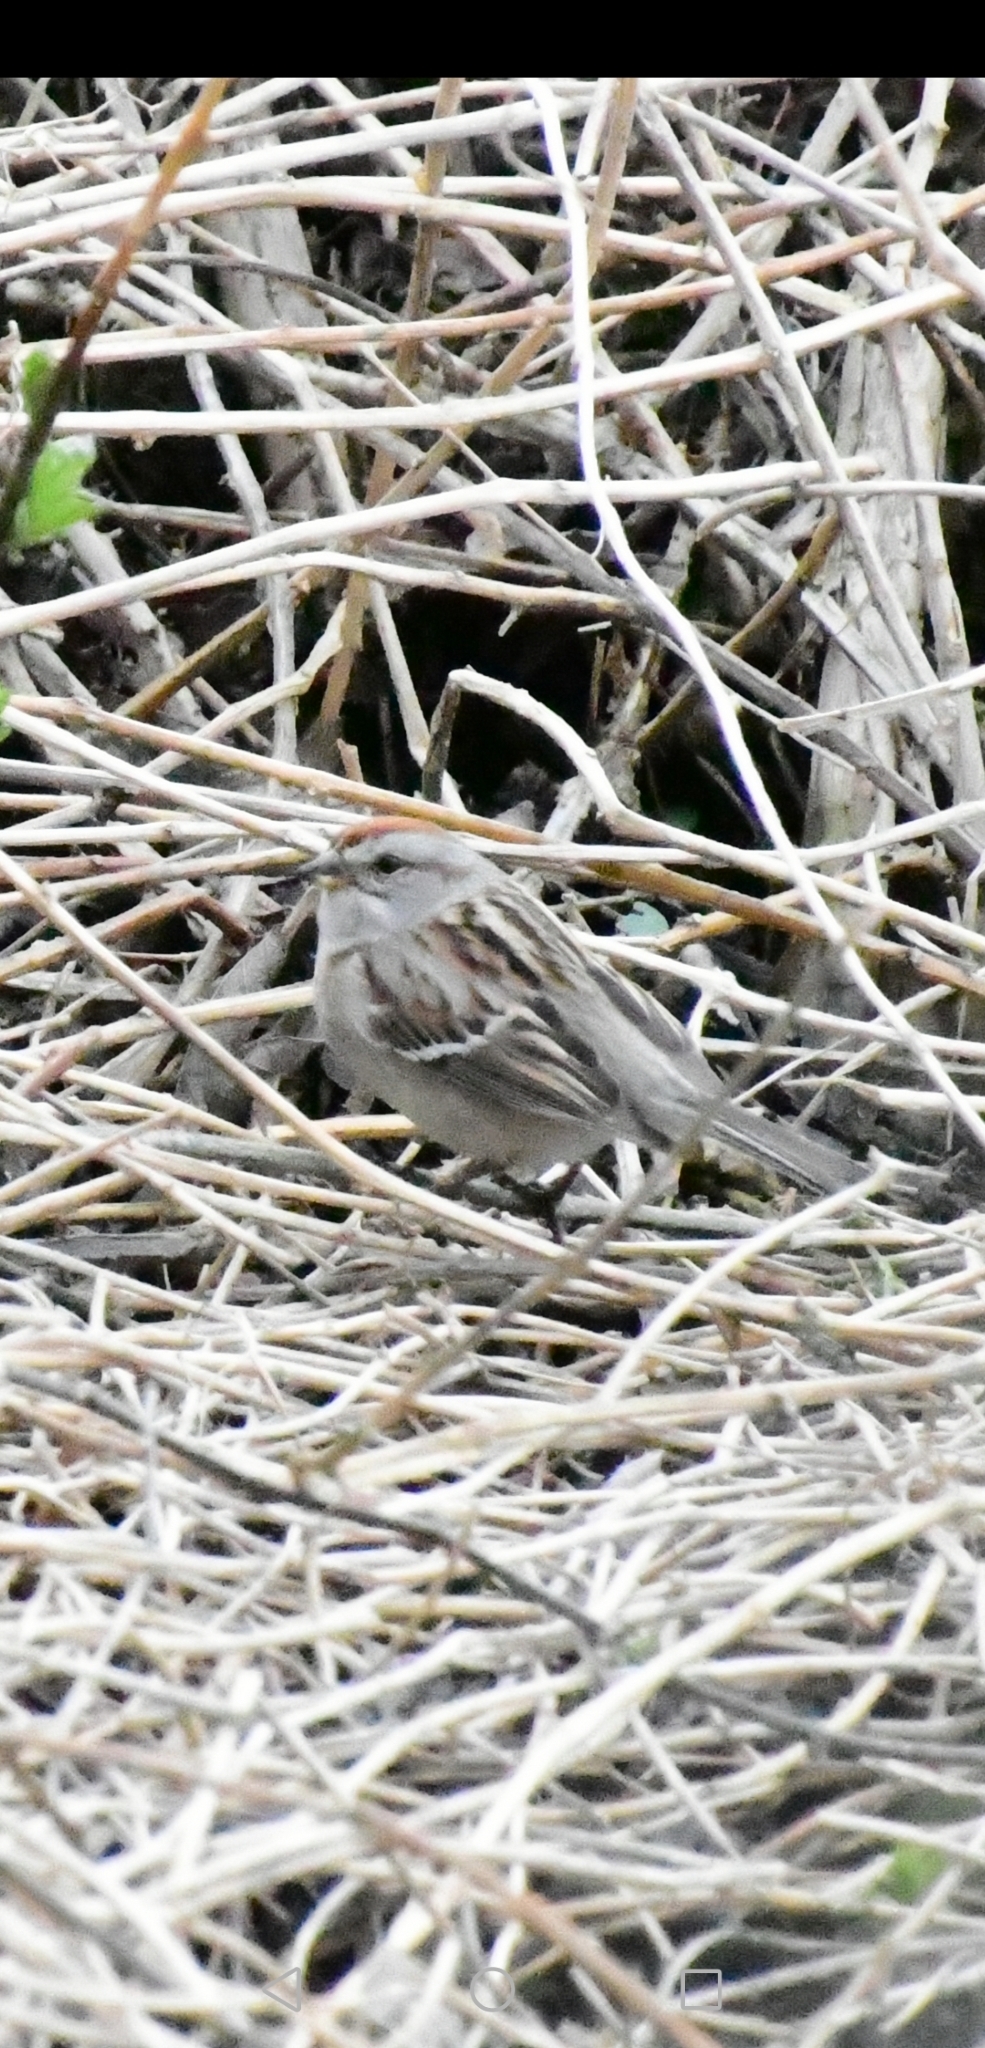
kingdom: Animalia
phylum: Chordata
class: Aves
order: Passeriformes
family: Passerellidae
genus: Spizella
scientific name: Spizella passerina
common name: Chipping sparrow
